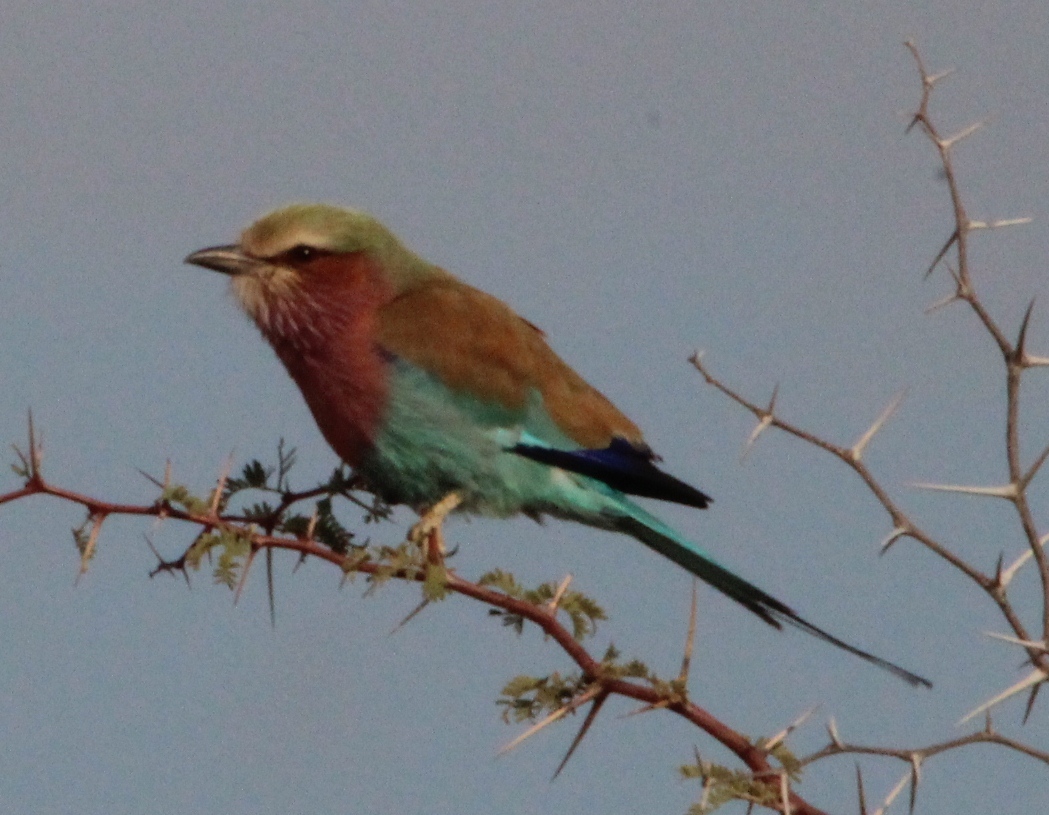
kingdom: Animalia
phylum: Chordata
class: Aves
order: Coraciiformes
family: Coraciidae
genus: Coracias
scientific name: Coracias caudatus
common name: Lilac-breasted roller
